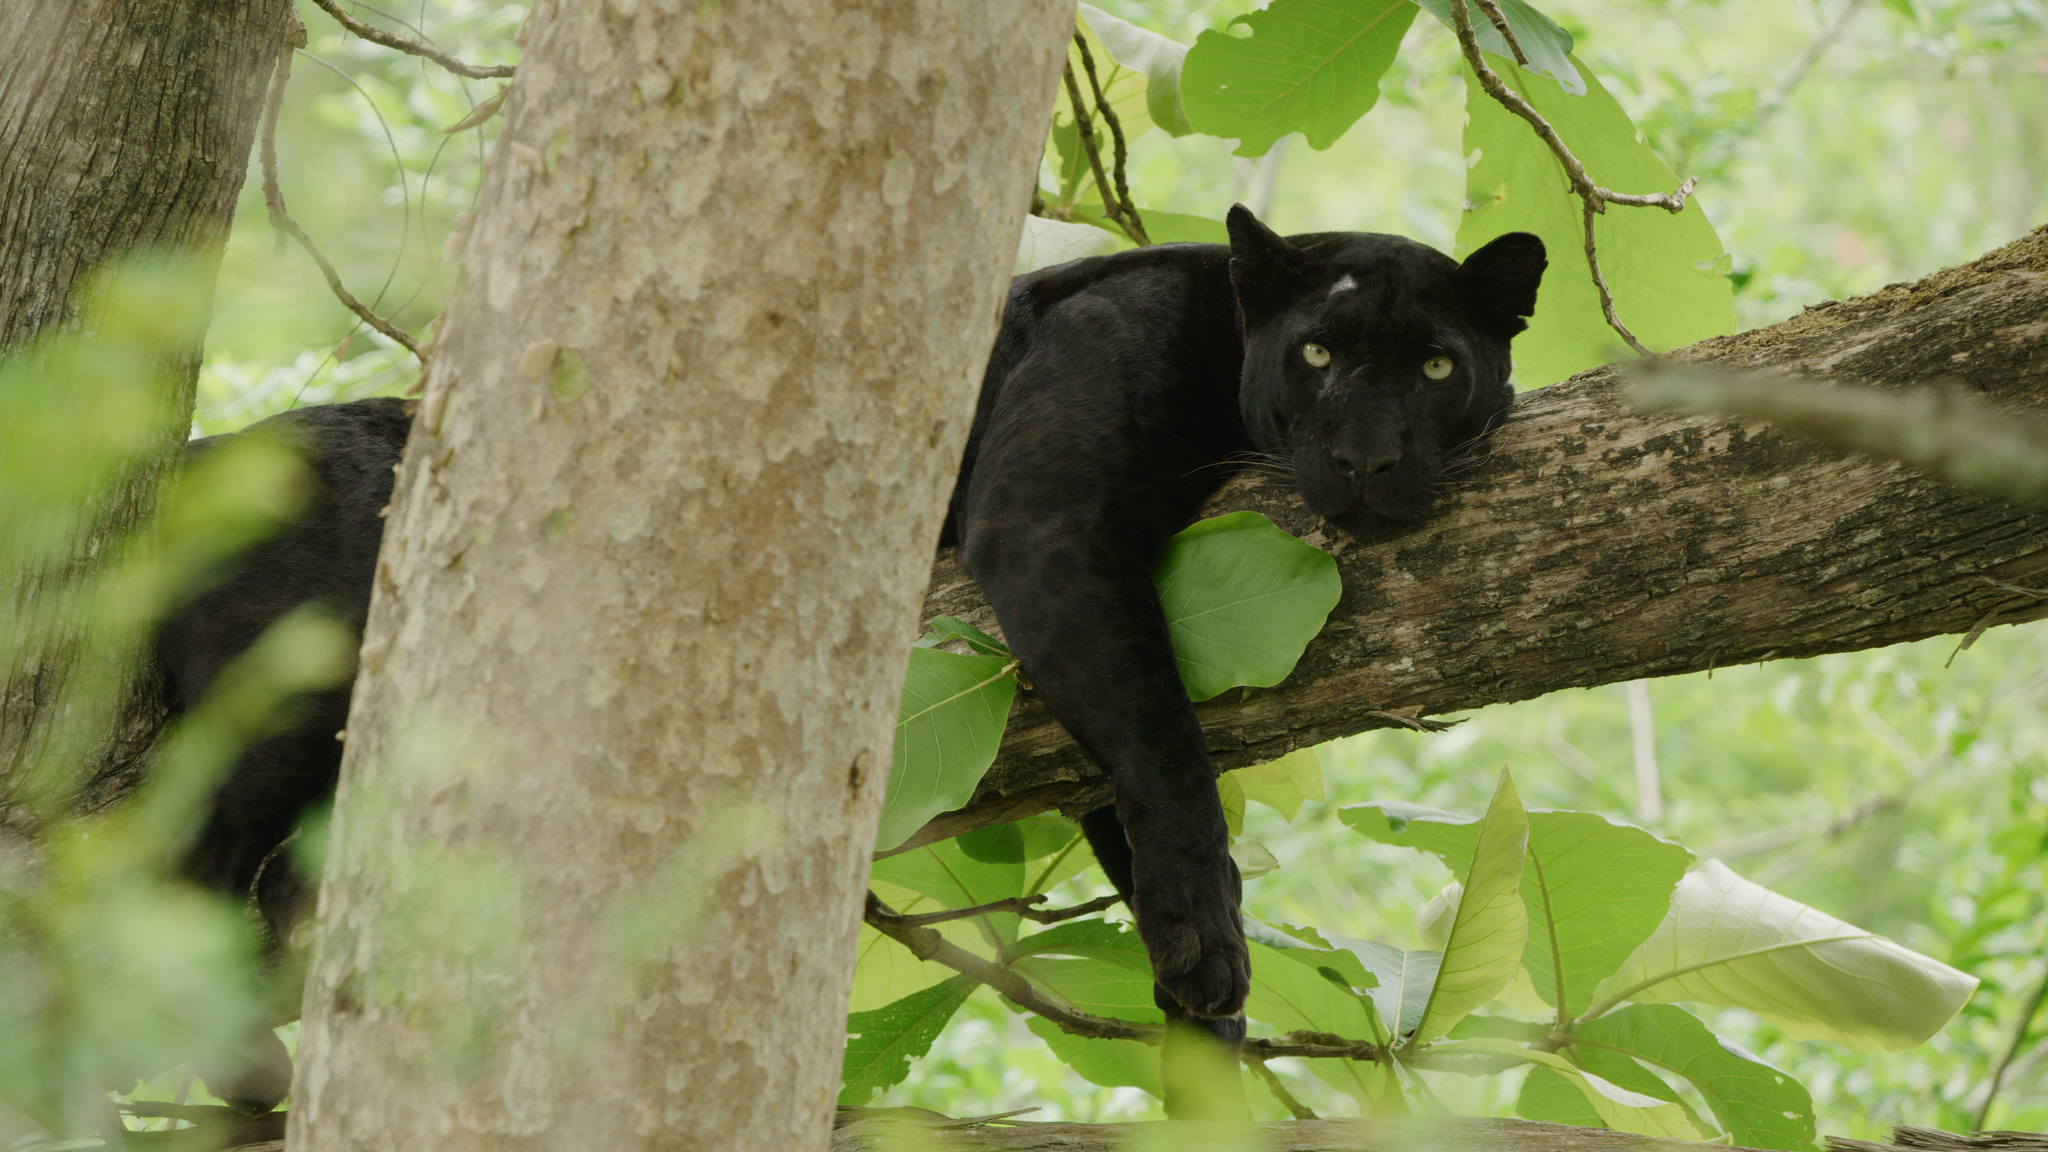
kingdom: Animalia
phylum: Chordata
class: Mammalia
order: Carnivora
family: Felidae
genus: Panthera
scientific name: Panthera pardus
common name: Leopard
